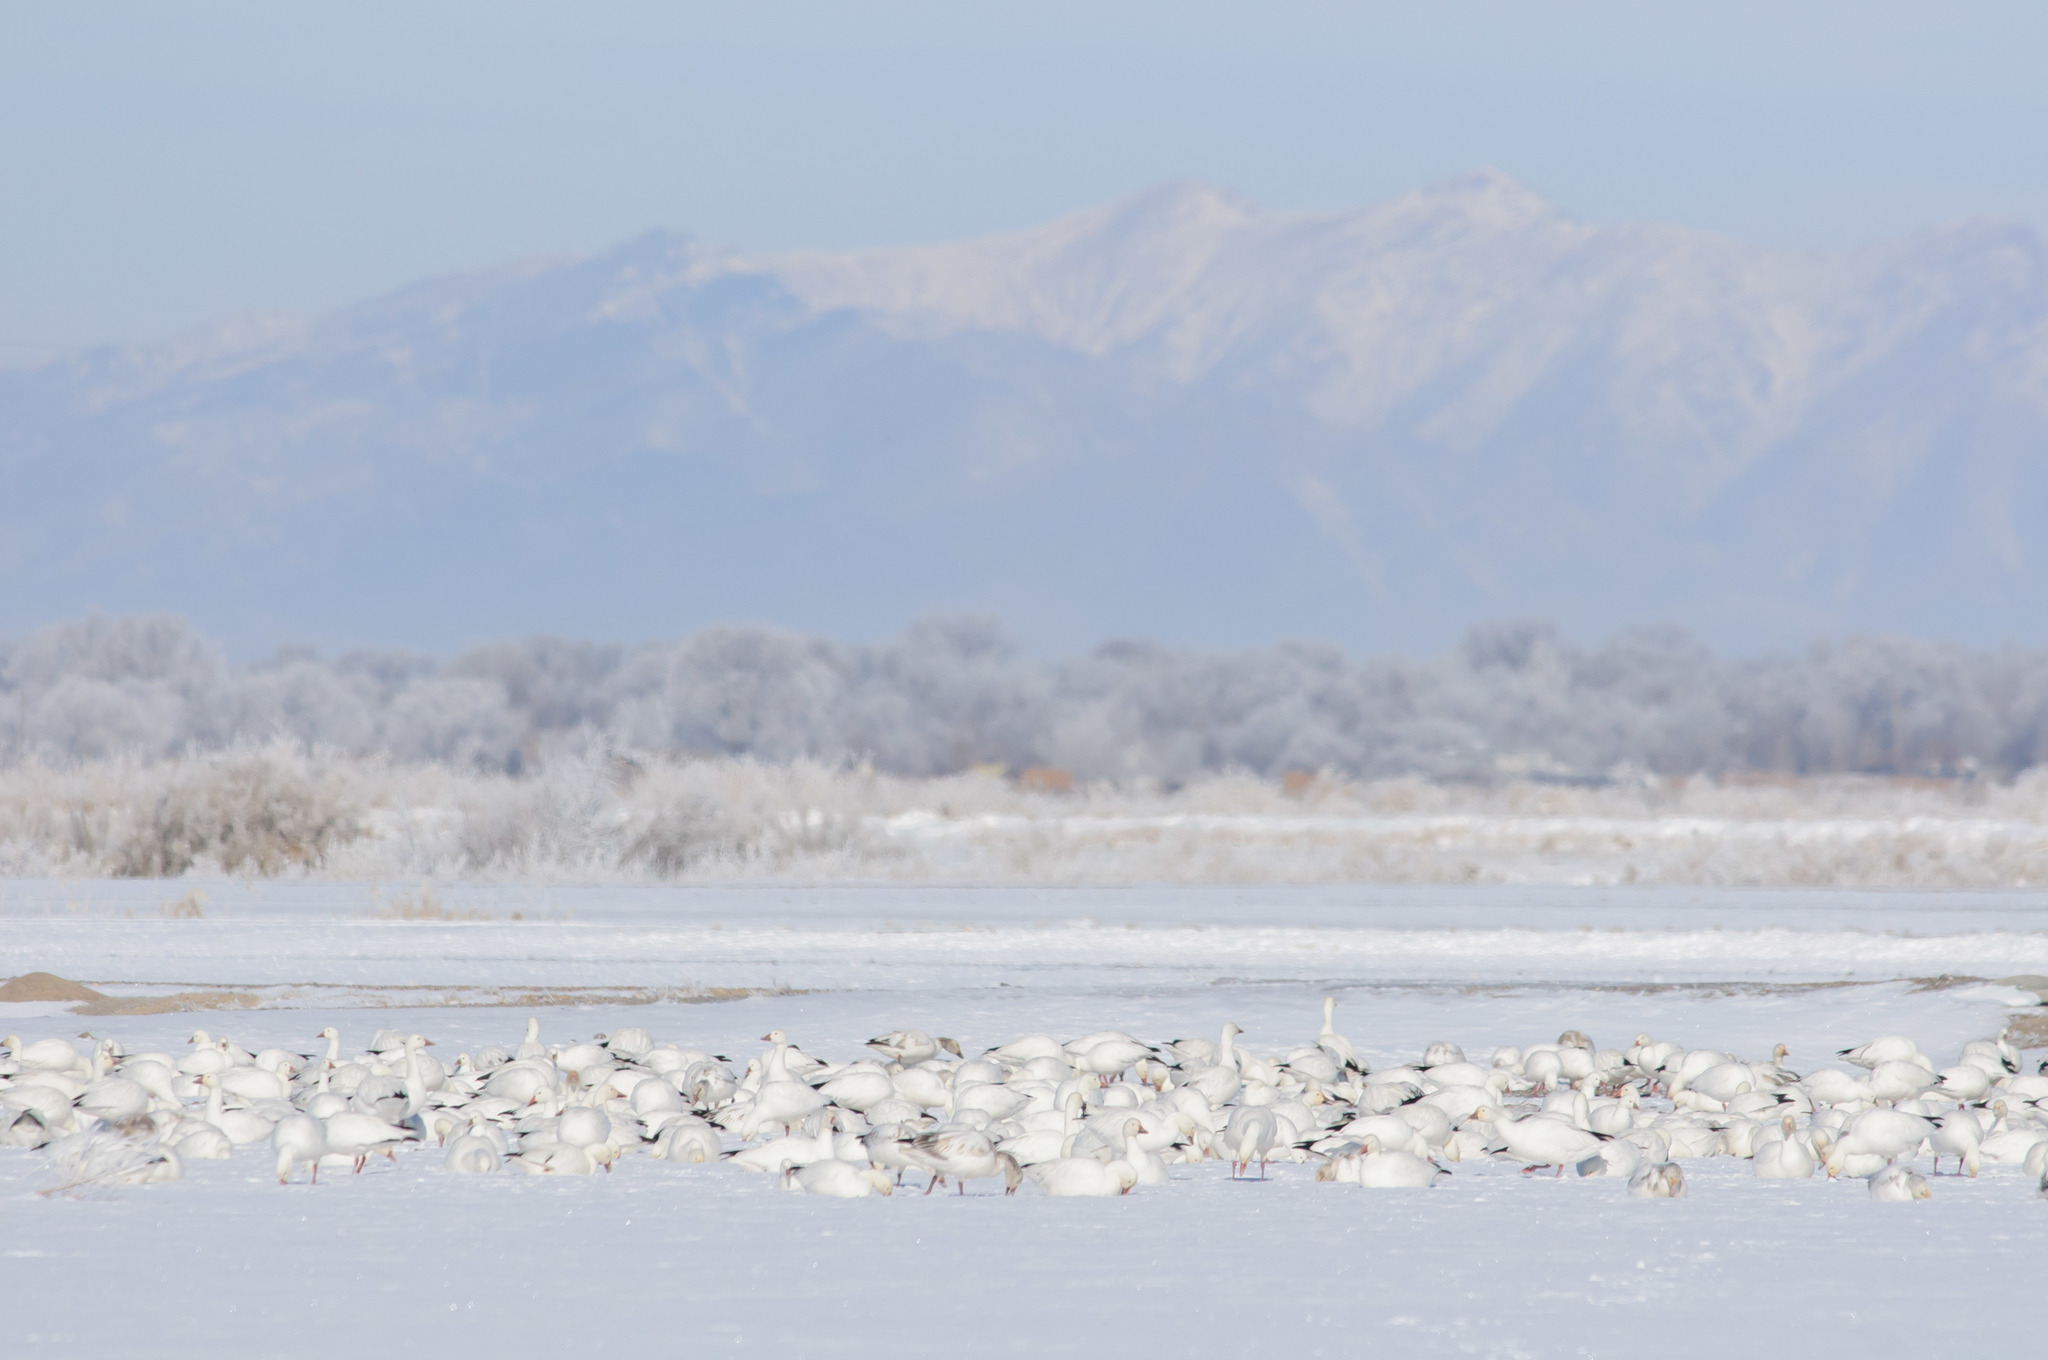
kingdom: Animalia
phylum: Chordata
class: Aves
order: Anseriformes
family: Anatidae
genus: Anser
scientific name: Anser caerulescens
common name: Snow goose
